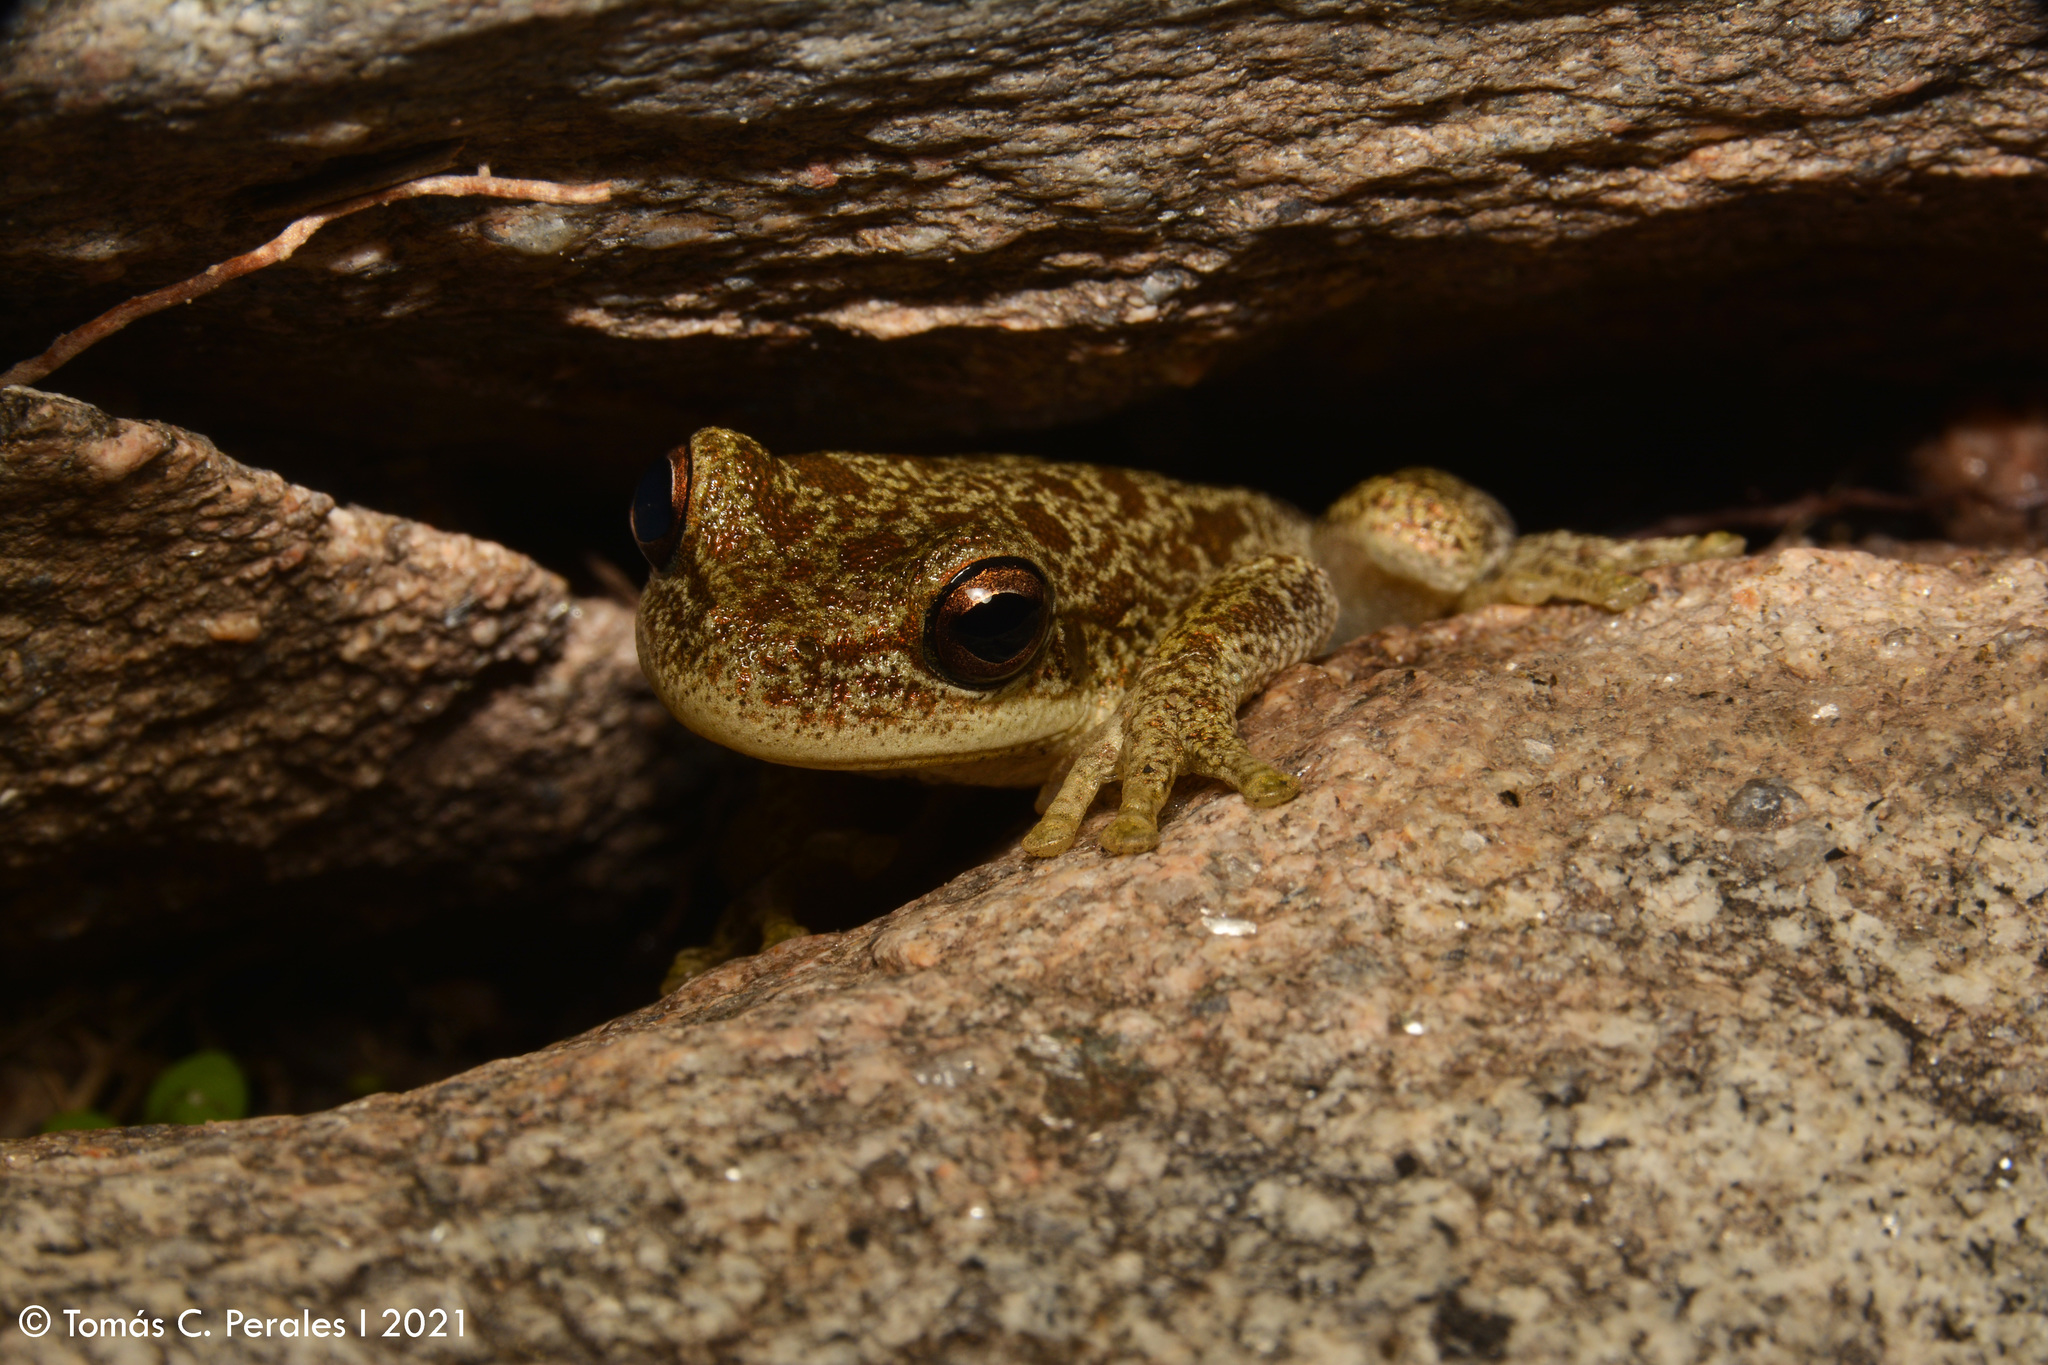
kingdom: Animalia
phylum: Chordata
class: Amphibia
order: Anura
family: Hylidae
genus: Boana
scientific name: Boana cordobae
